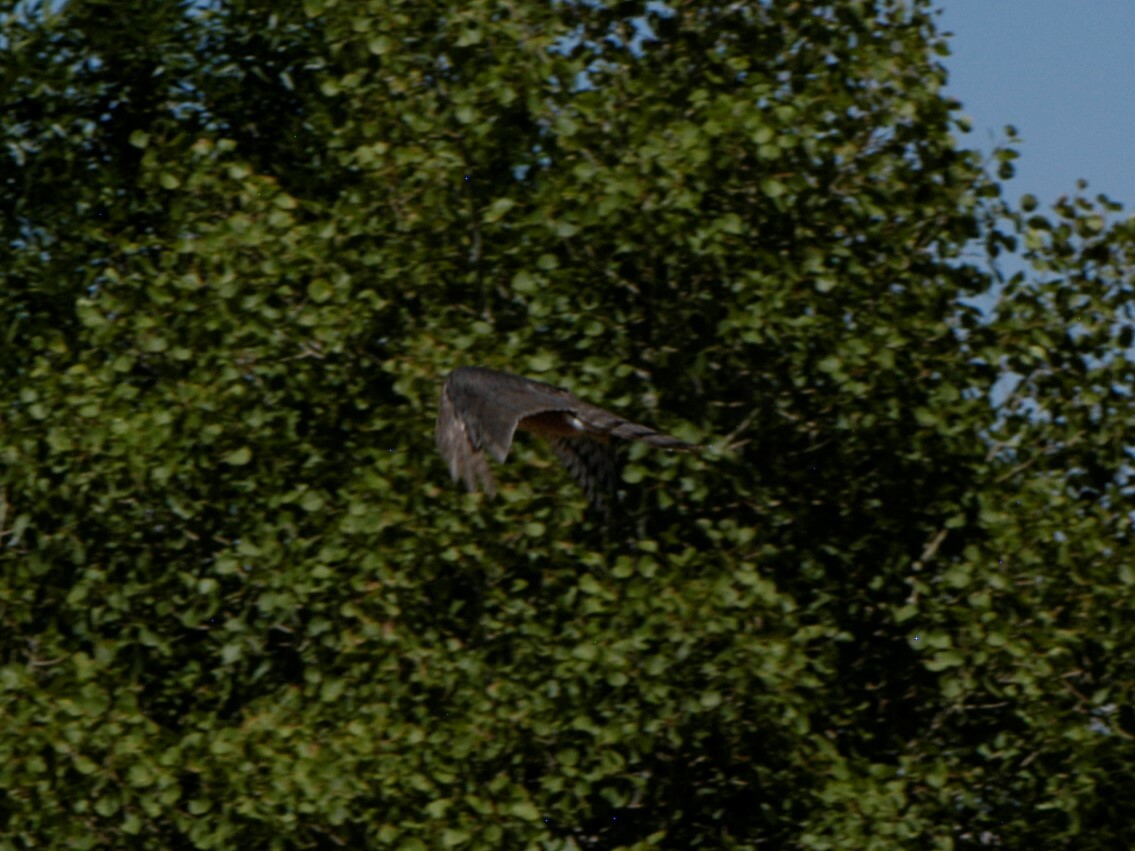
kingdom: Animalia
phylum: Chordata
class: Aves
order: Accipitriformes
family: Accipitridae
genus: Accipiter
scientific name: Accipiter cooperii
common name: Cooper's hawk
